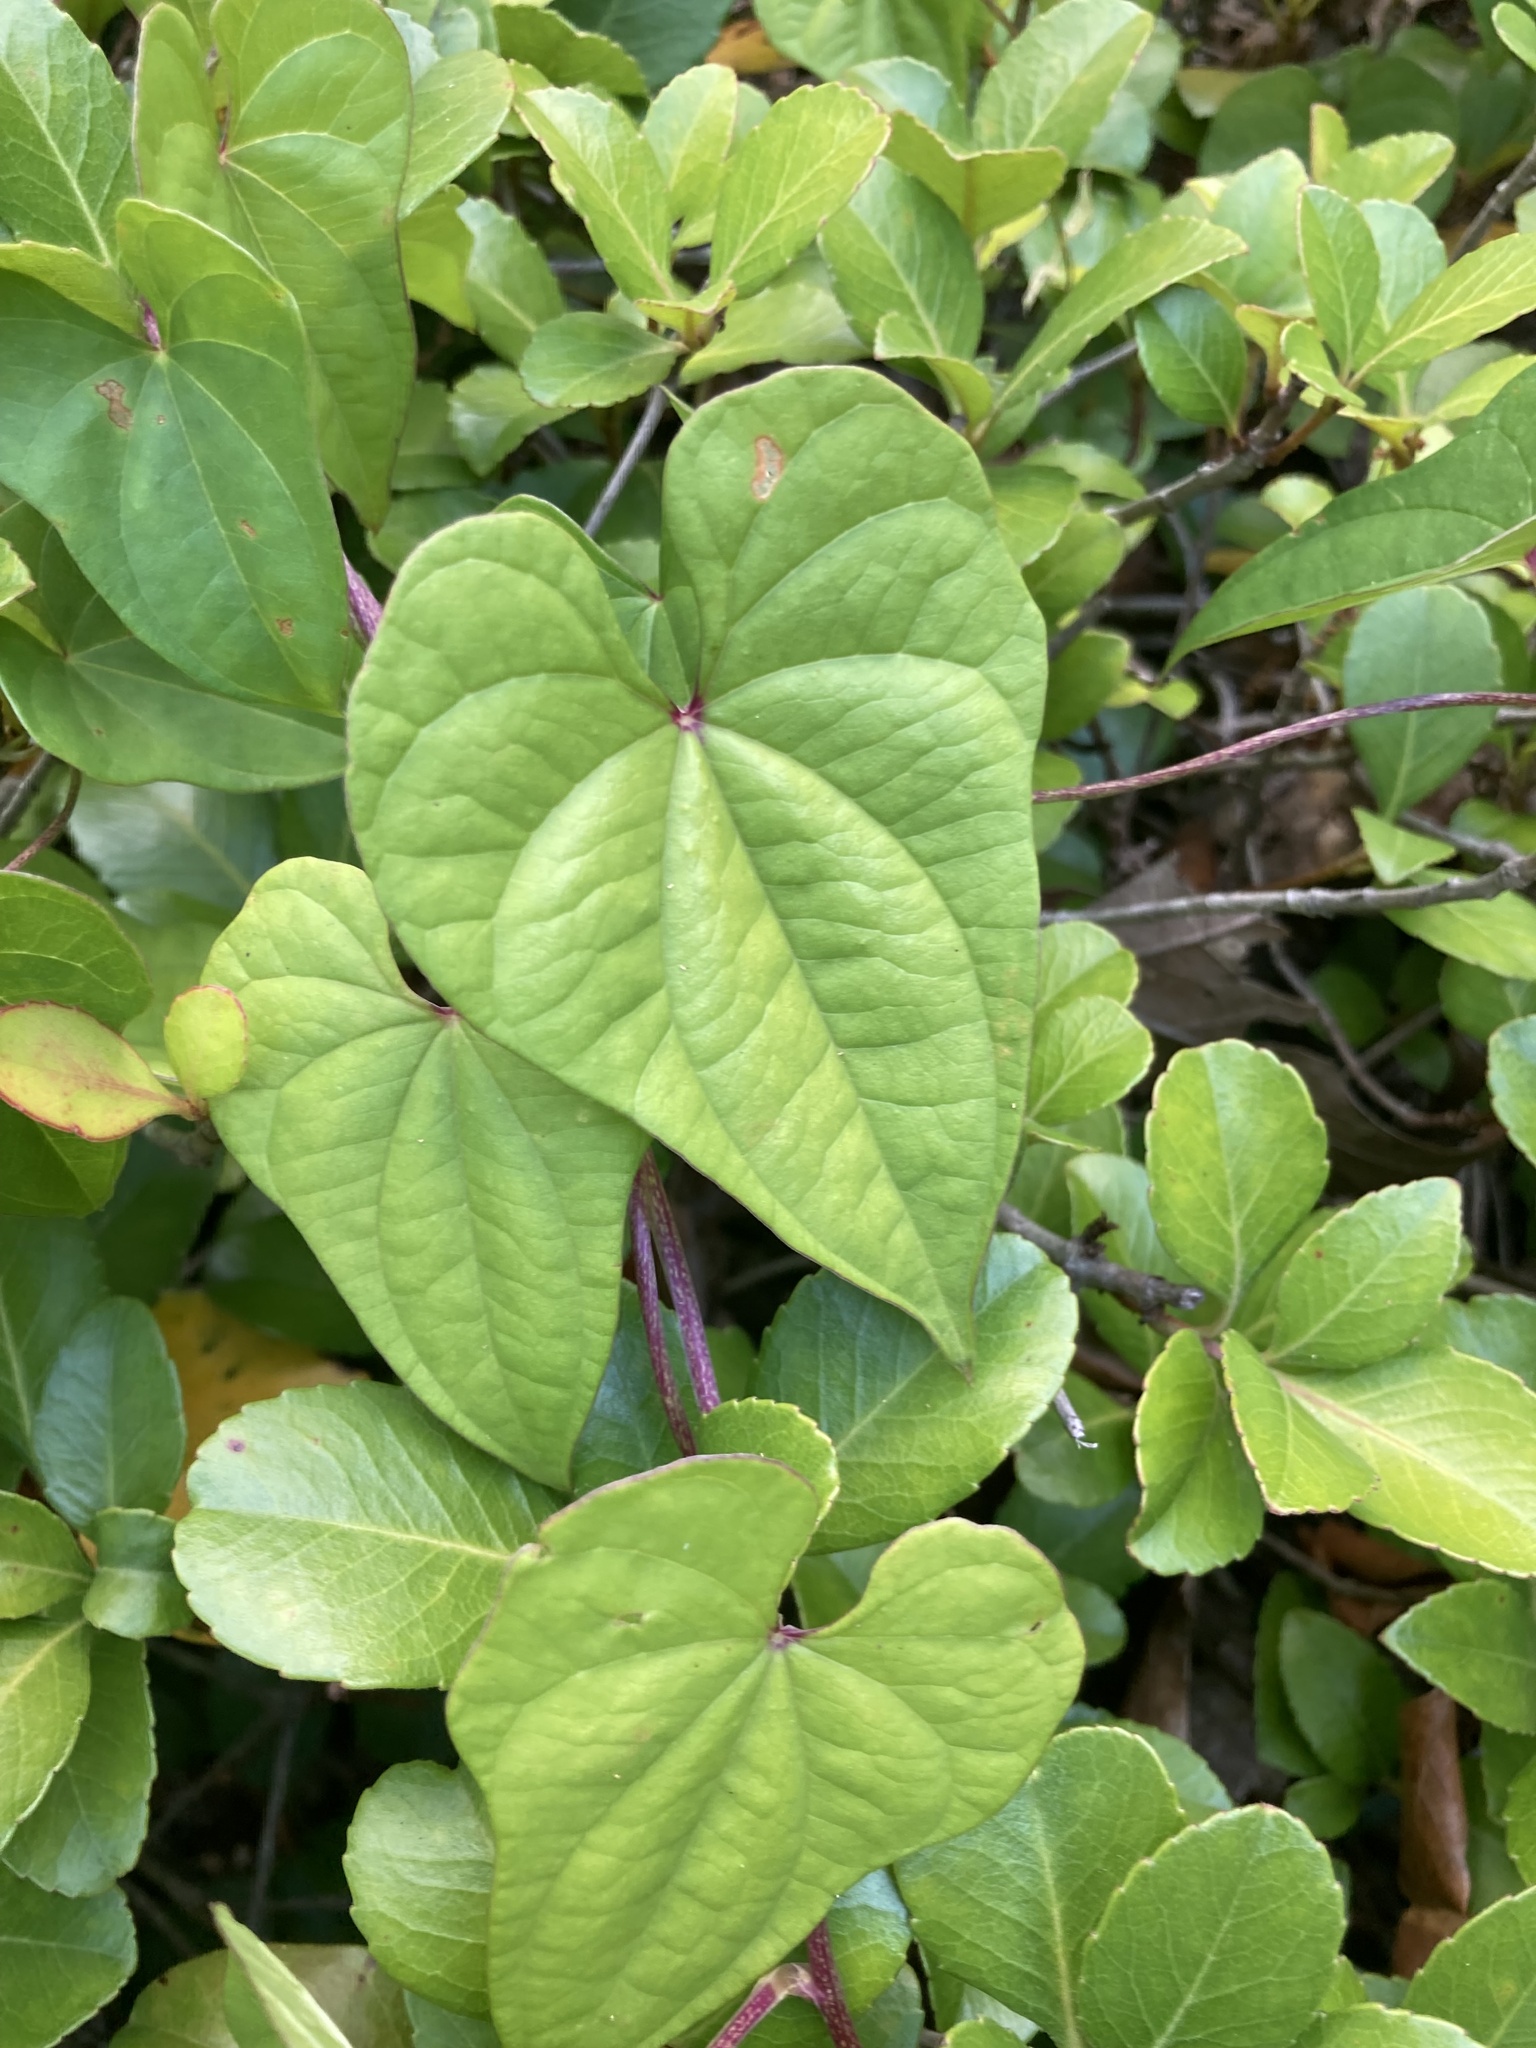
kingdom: Plantae
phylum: Tracheophyta
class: Liliopsida
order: Dioscoreales
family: Dioscoreaceae
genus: Dioscorea
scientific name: Dioscorea polystachya
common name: Chinese yam
